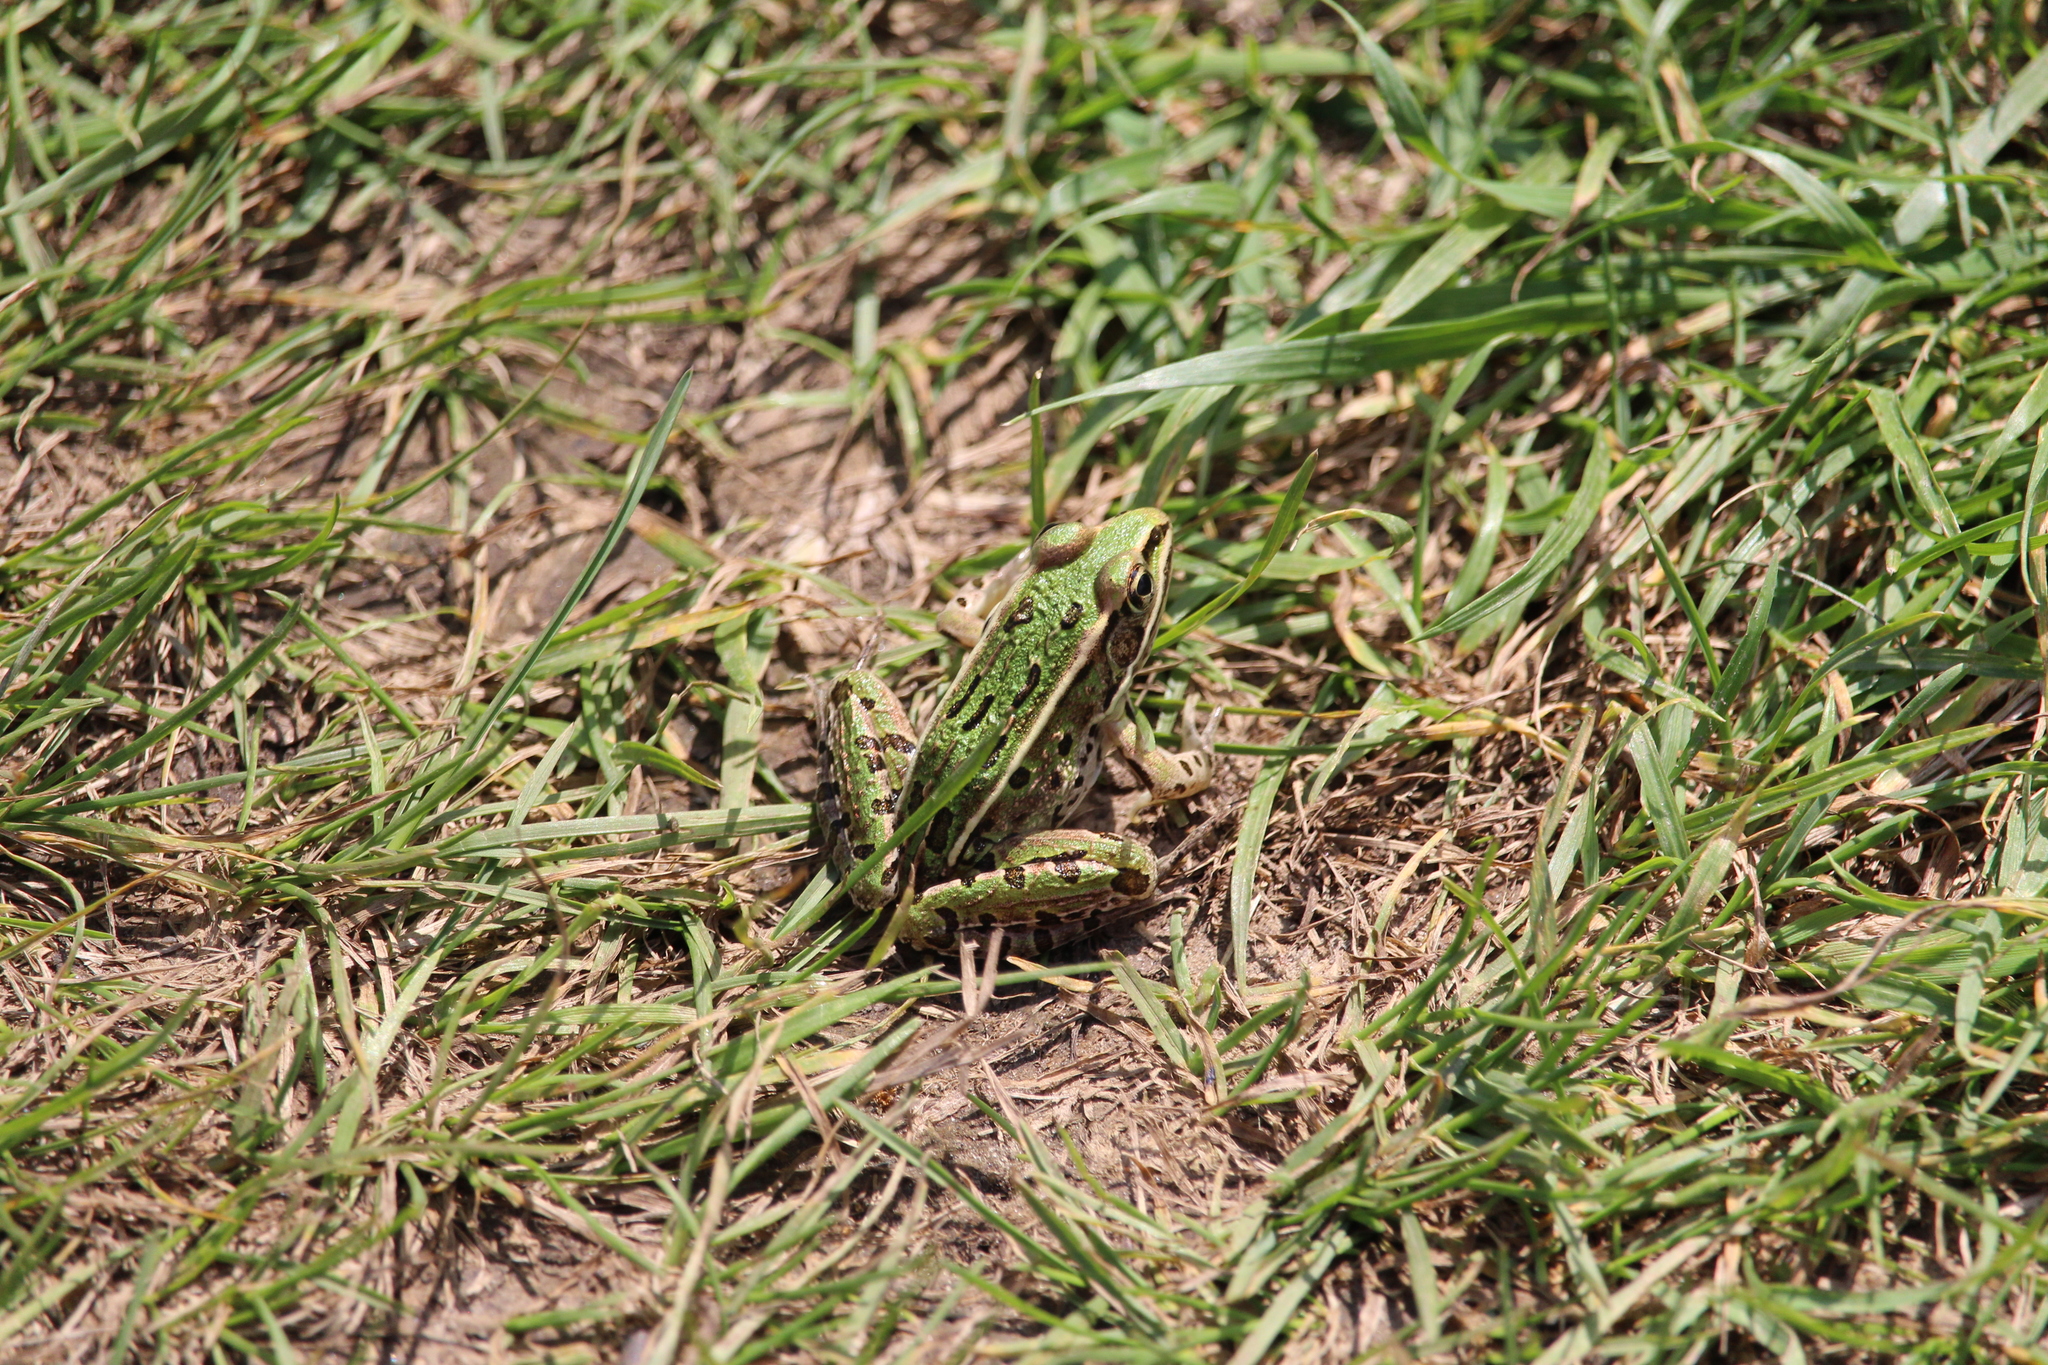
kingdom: Animalia
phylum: Chordata
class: Amphibia
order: Anura
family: Ranidae
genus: Lithobates
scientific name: Lithobates pipiens
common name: Northern leopard frog
